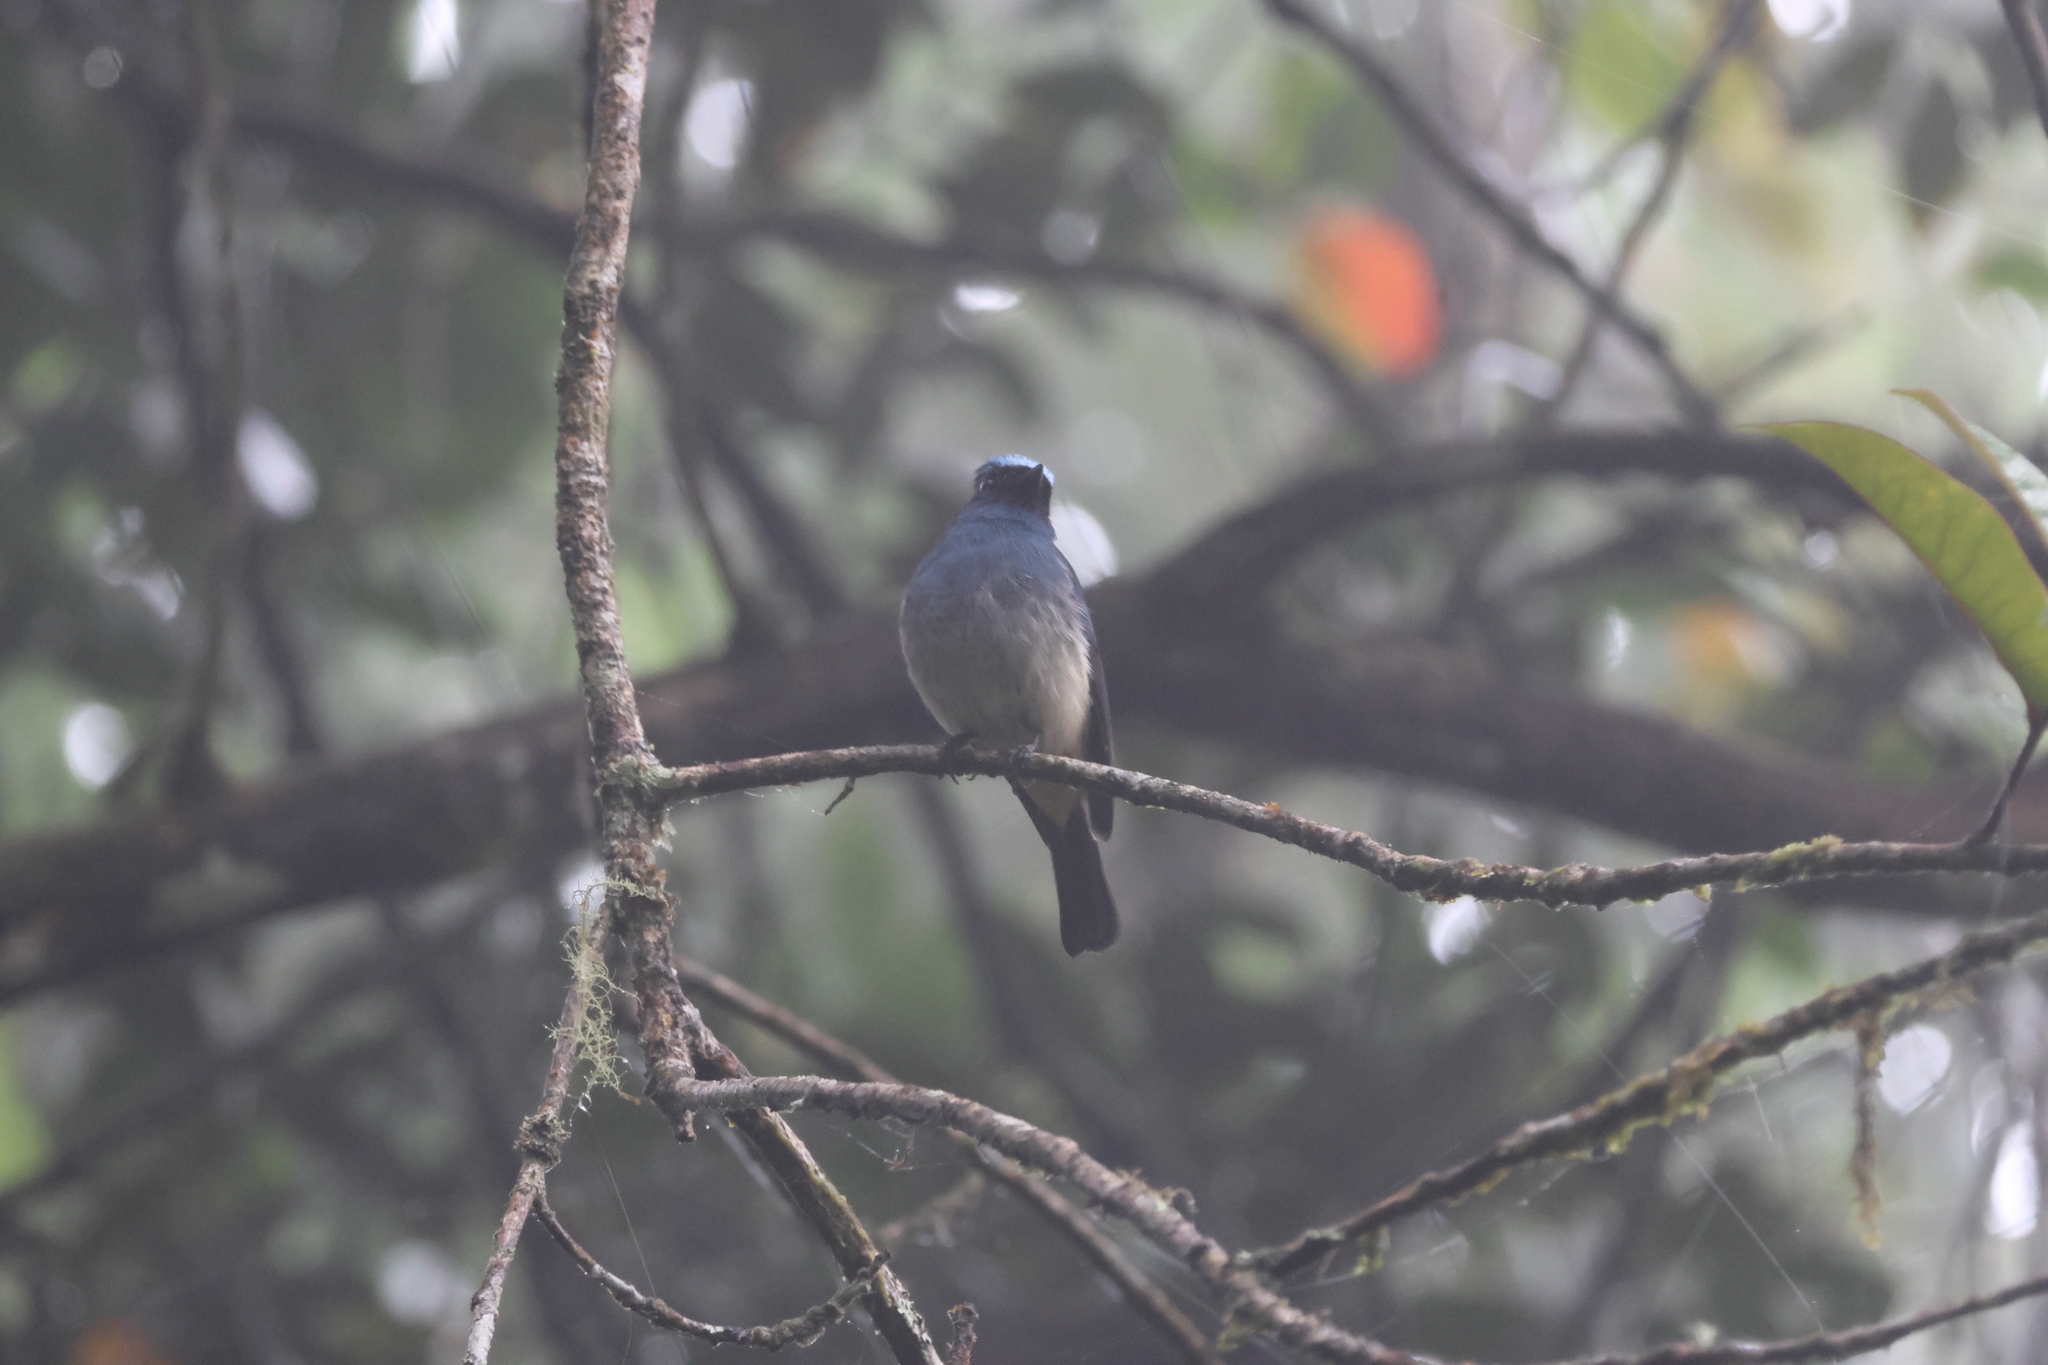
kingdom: Animalia
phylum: Chordata
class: Aves
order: Passeriformes
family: Muscicapidae
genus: Eumyias
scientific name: Eumyias indigo
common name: Indigo flycatcher
